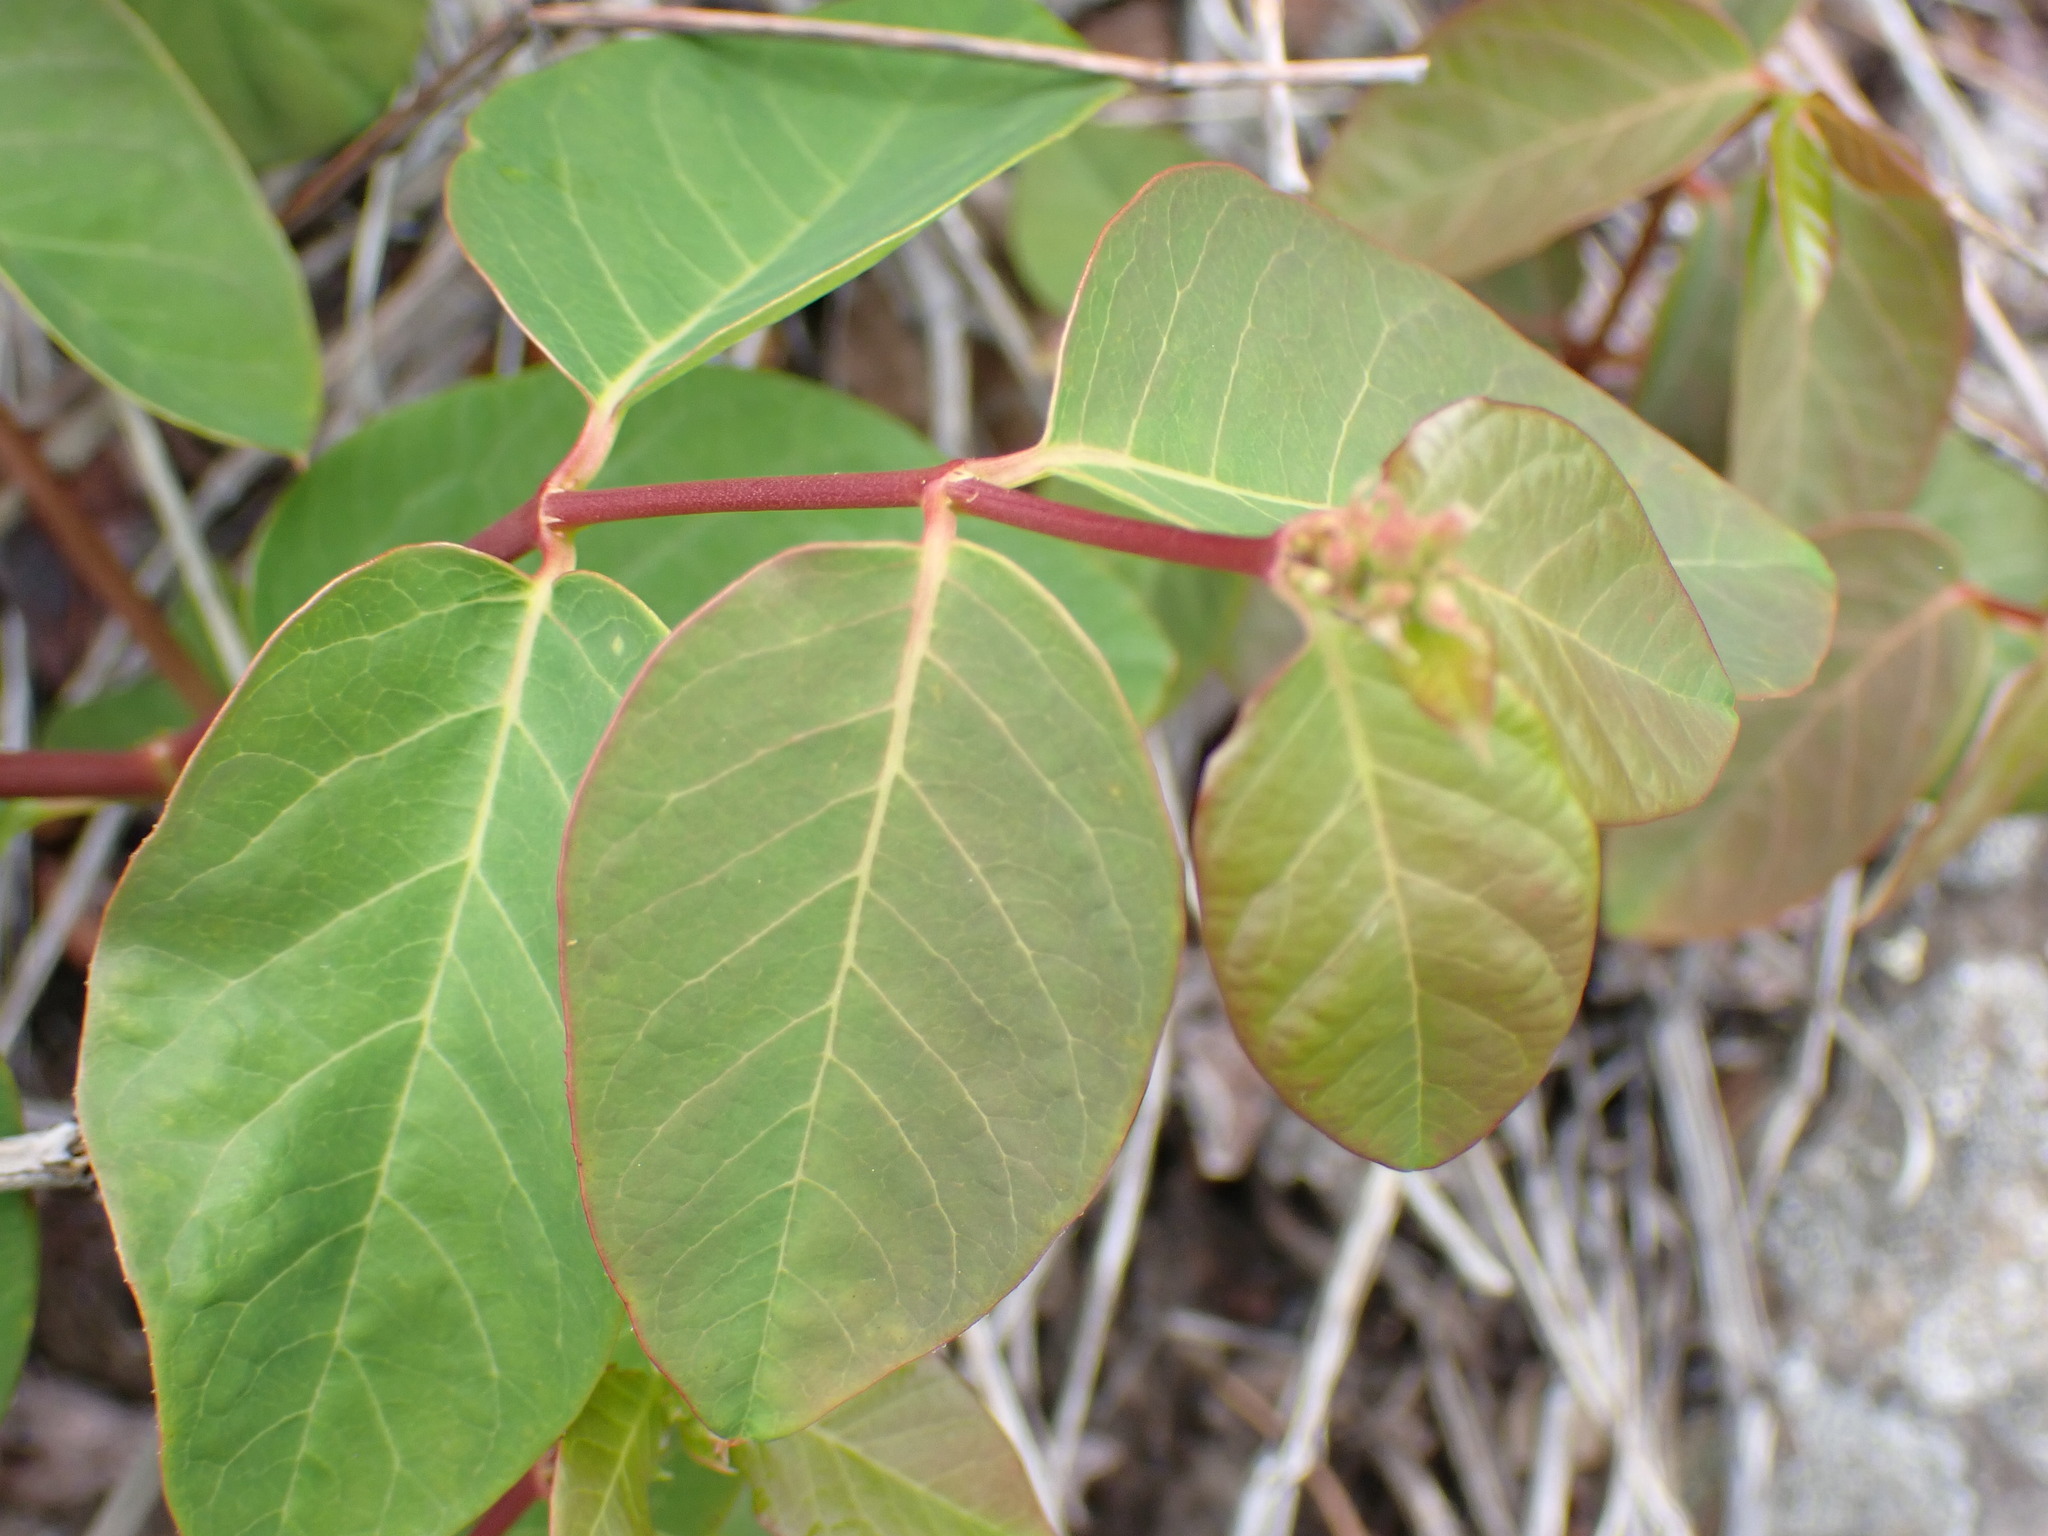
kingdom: Plantae
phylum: Tracheophyta
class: Magnoliopsida
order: Gentianales
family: Apocynaceae
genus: Apocynum
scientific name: Apocynum androsaemifolium
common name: Spreading dogbane
